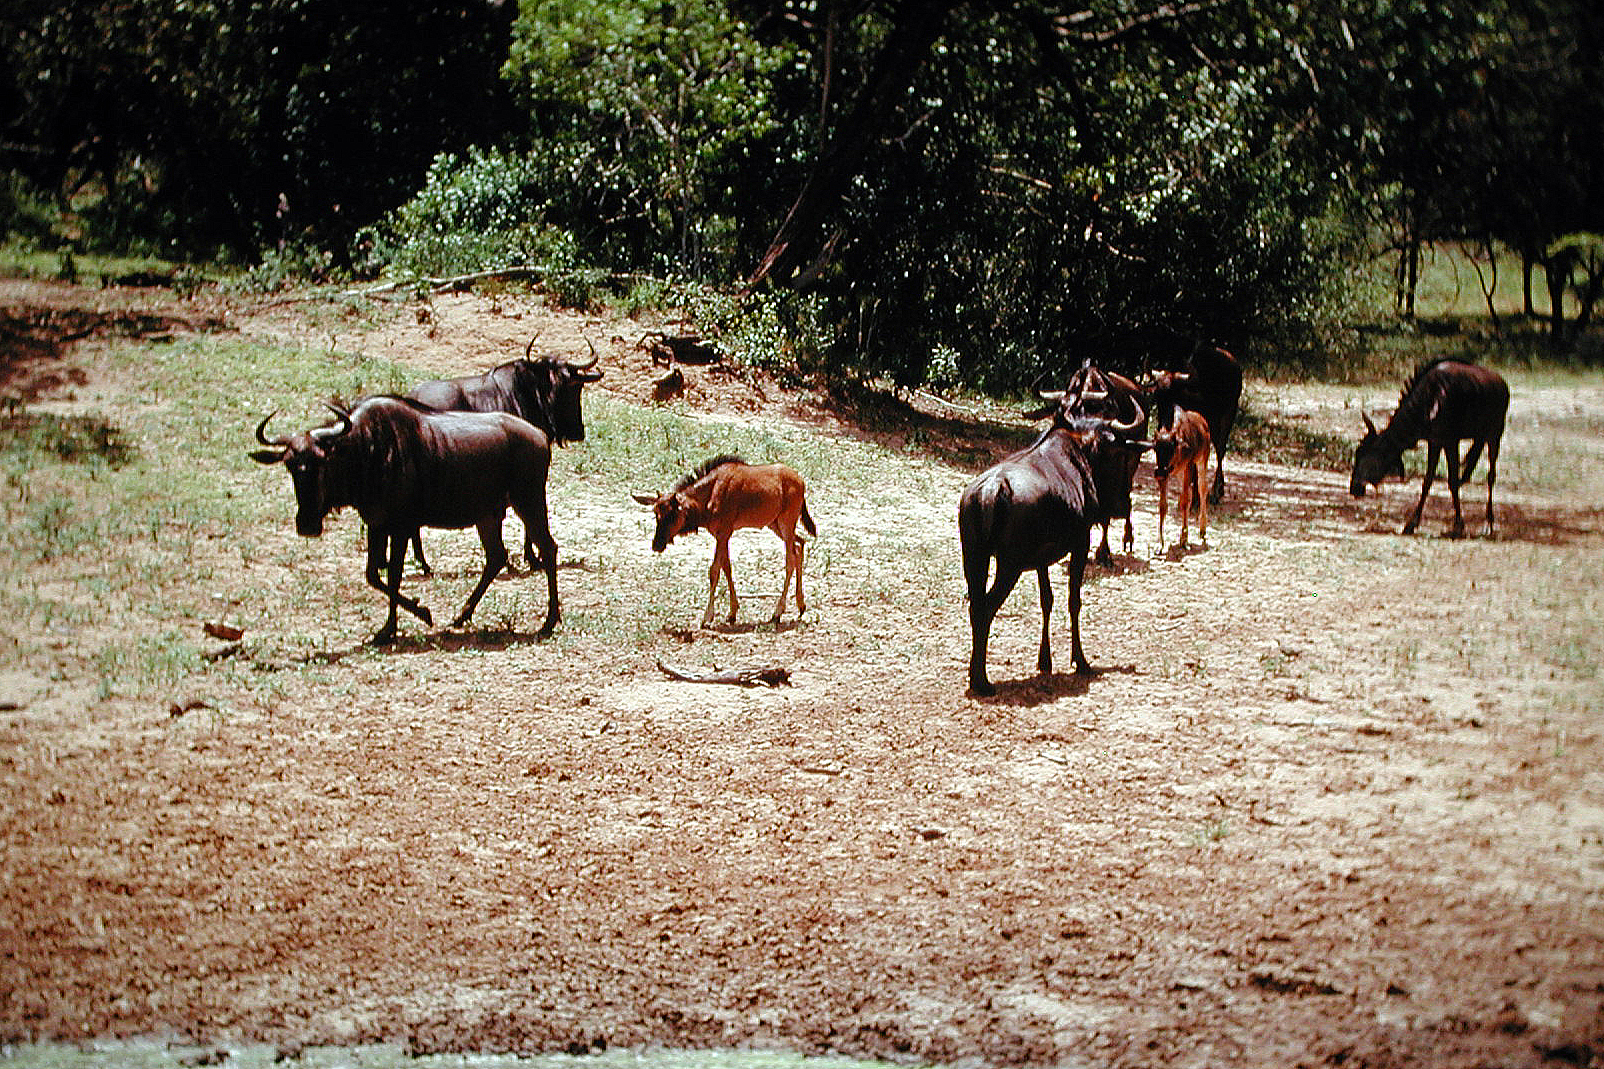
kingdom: Animalia
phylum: Chordata
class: Mammalia
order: Artiodactyla
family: Bovidae
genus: Connochaetes
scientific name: Connochaetes taurinus
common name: Blue wildebeest
